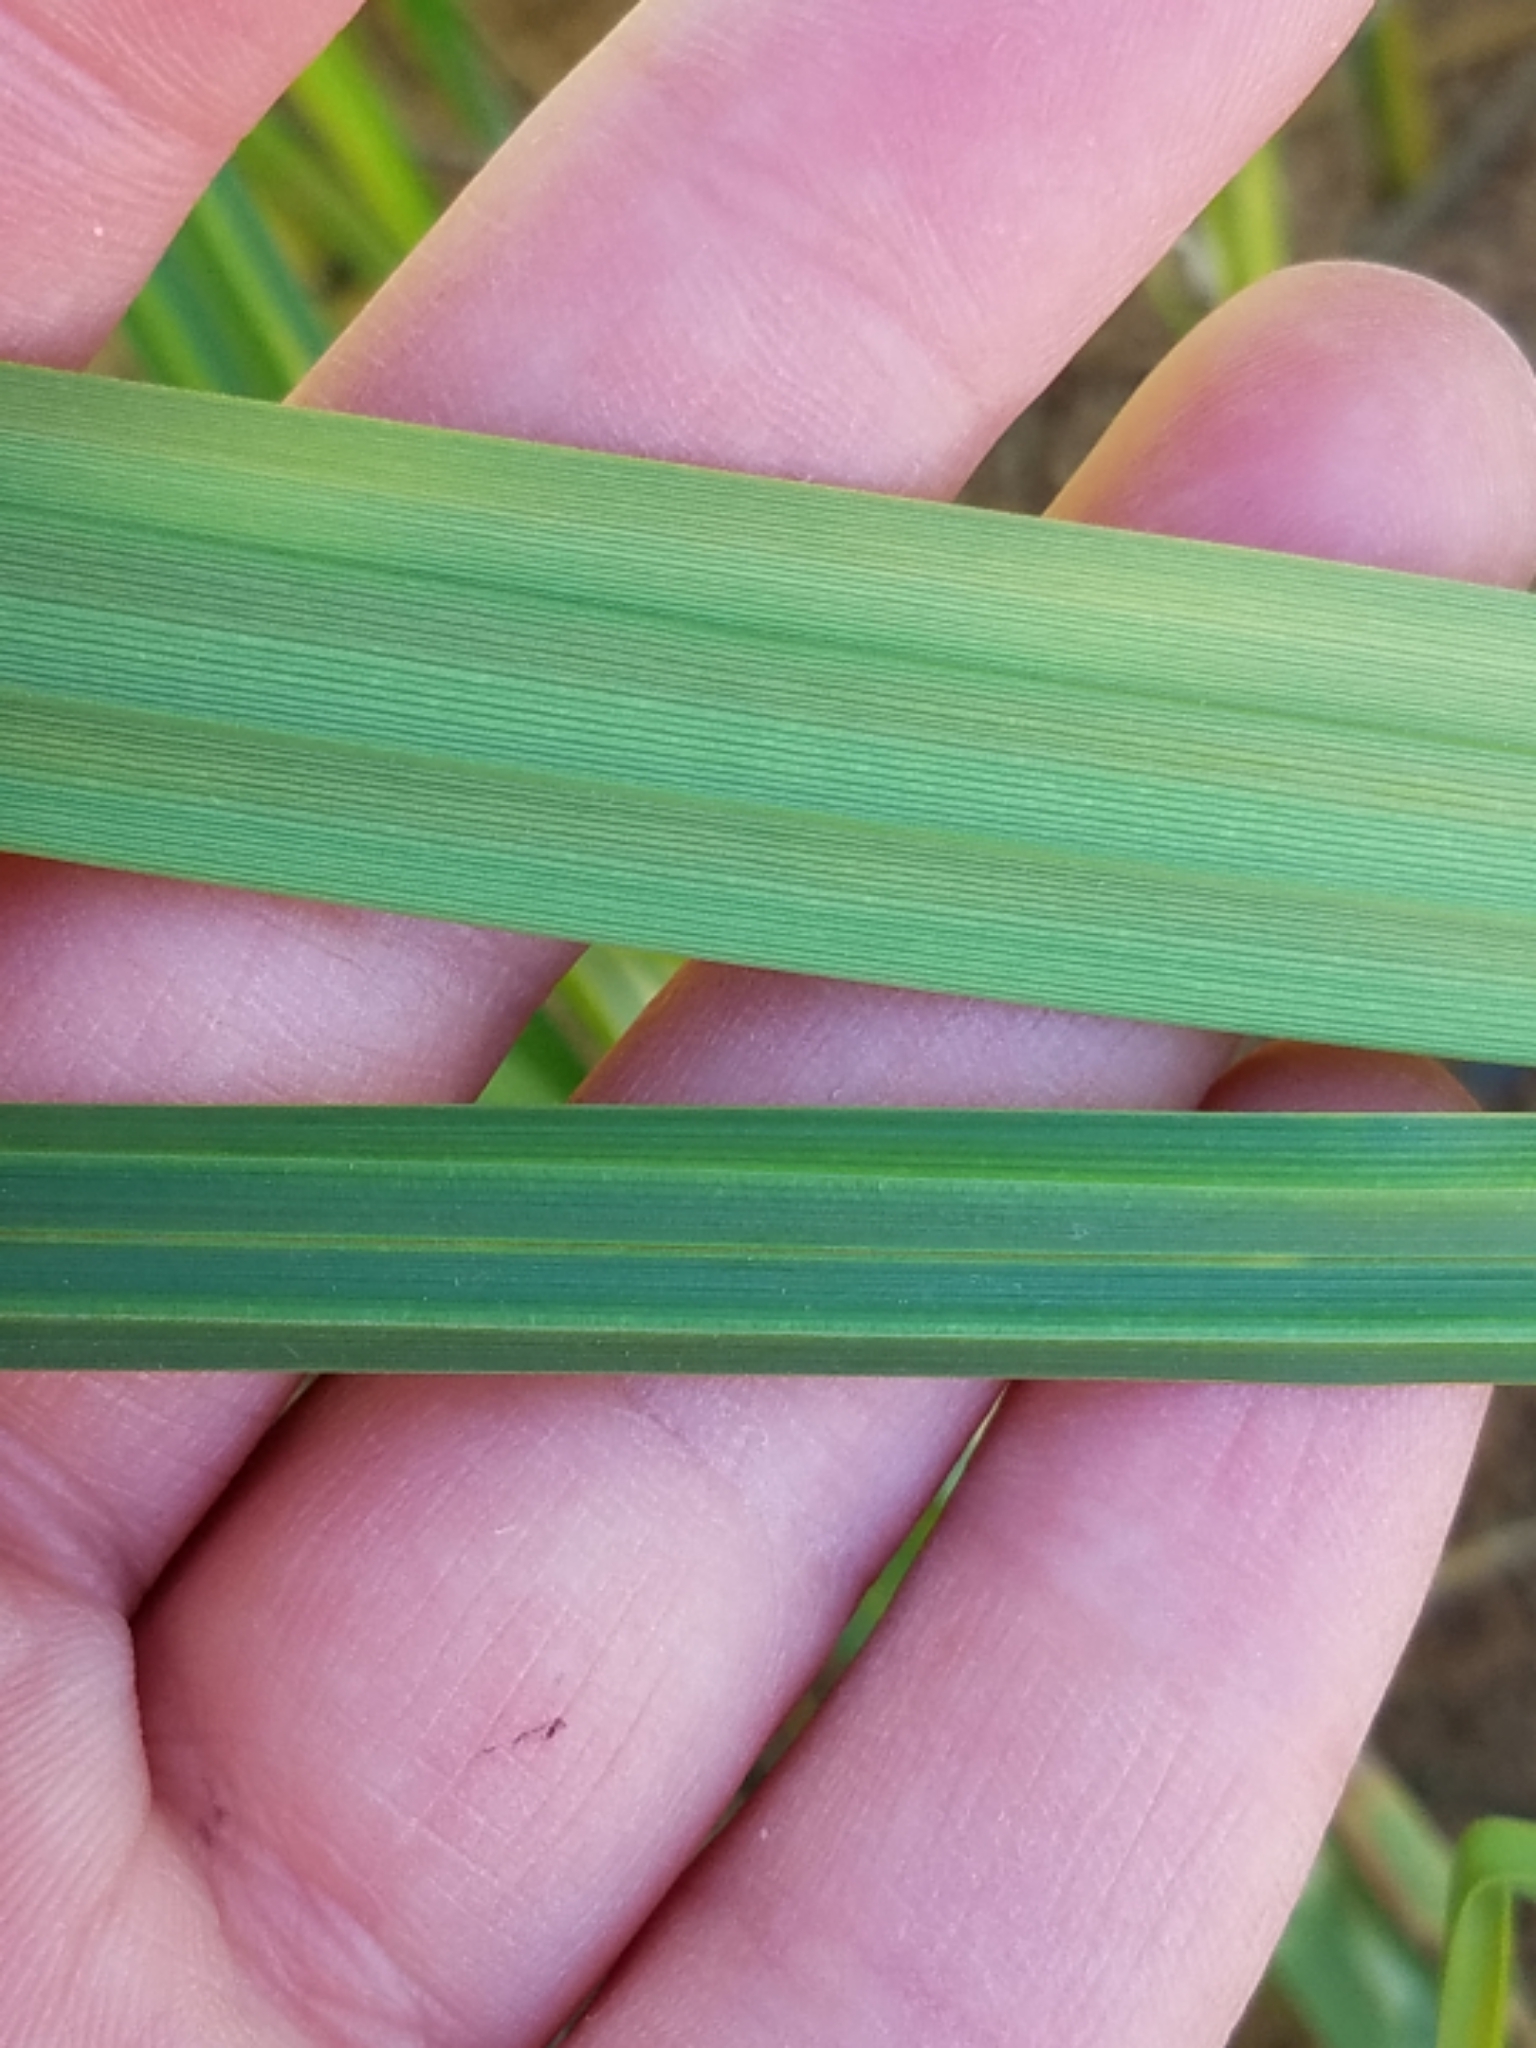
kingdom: Plantae
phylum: Tracheophyta
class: Liliopsida
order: Poales
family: Cyperaceae
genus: Carex
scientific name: Carex lacustris
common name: Common lake sedge
